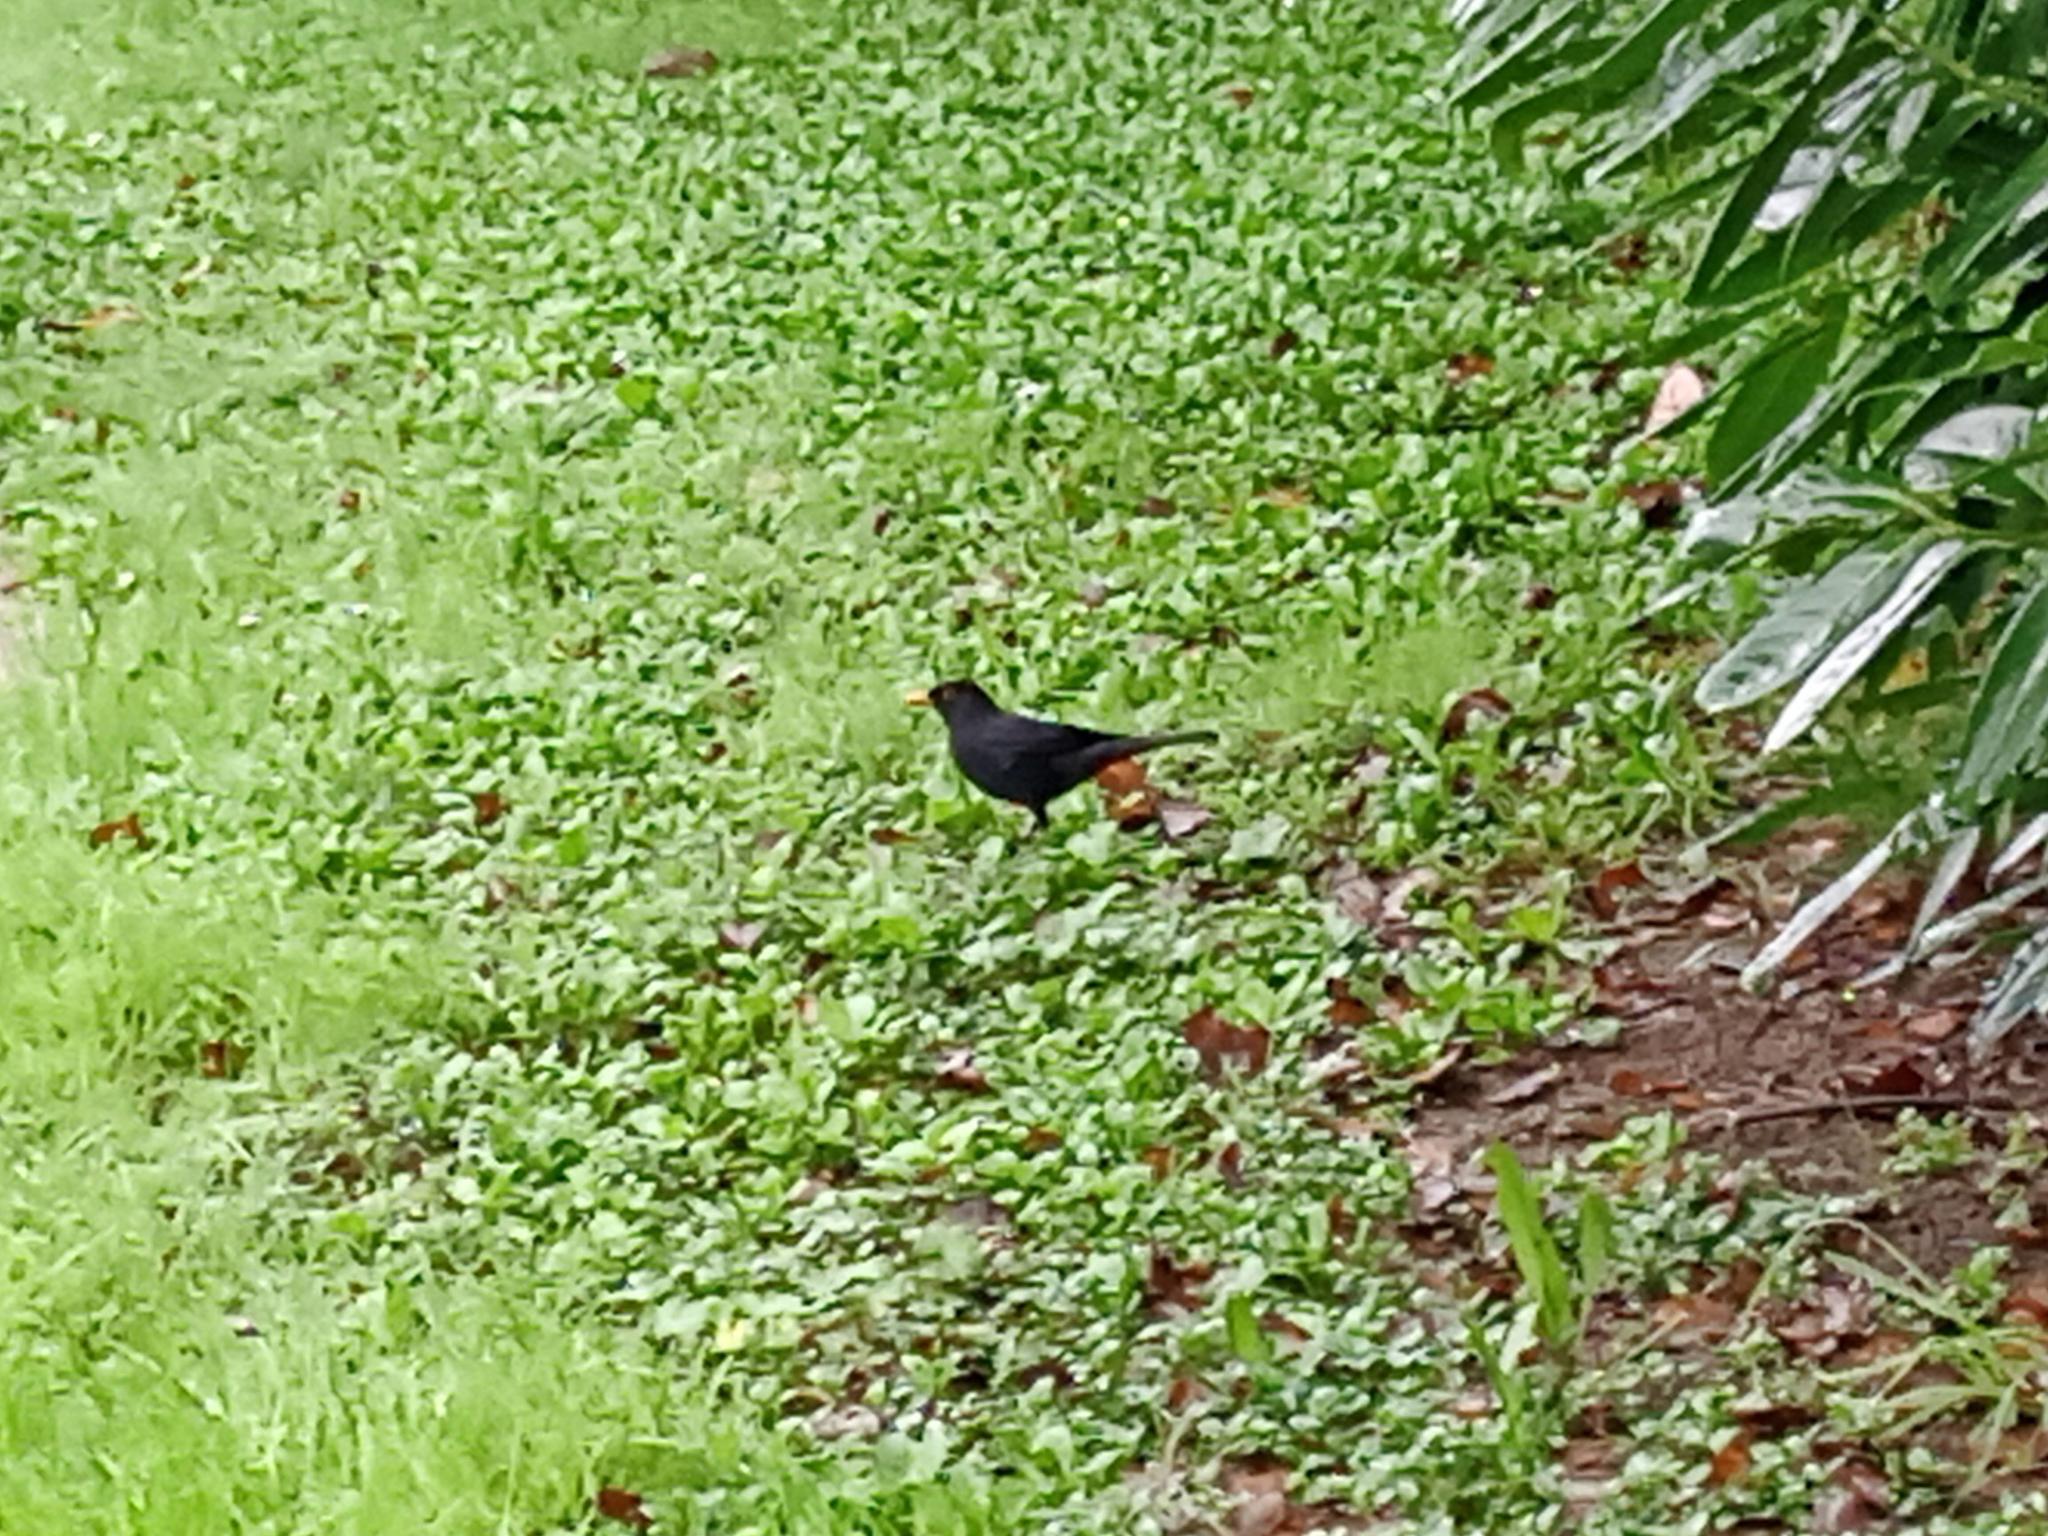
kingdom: Animalia
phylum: Chordata
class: Aves
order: Passeriformes
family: Turdidae
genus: Turdus
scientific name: Turdus merula
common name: Common blackbird
